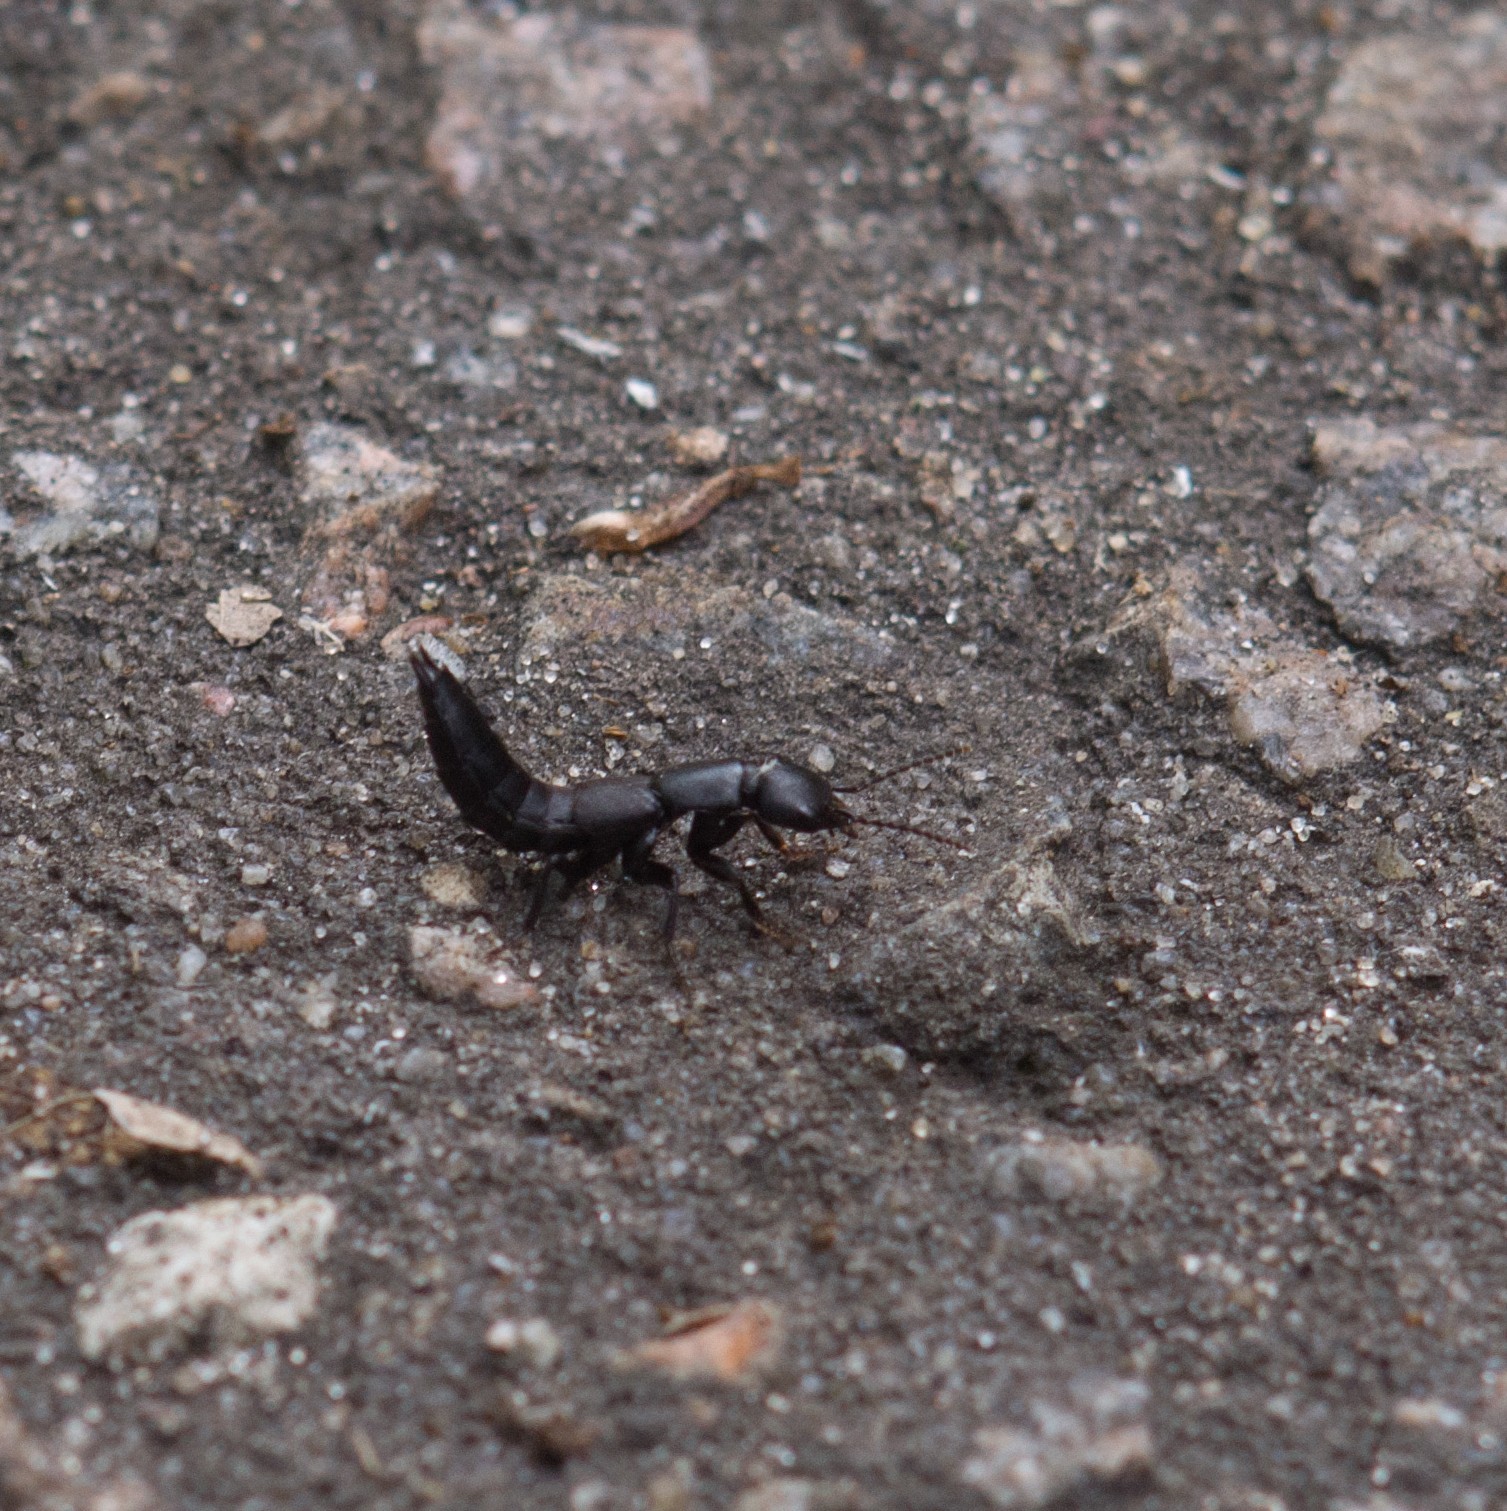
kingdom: Animalia
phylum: Arthropoda
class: Insecta
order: Coleoptera
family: Staphylinidae
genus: Ocypus
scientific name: Ocypus nitens
